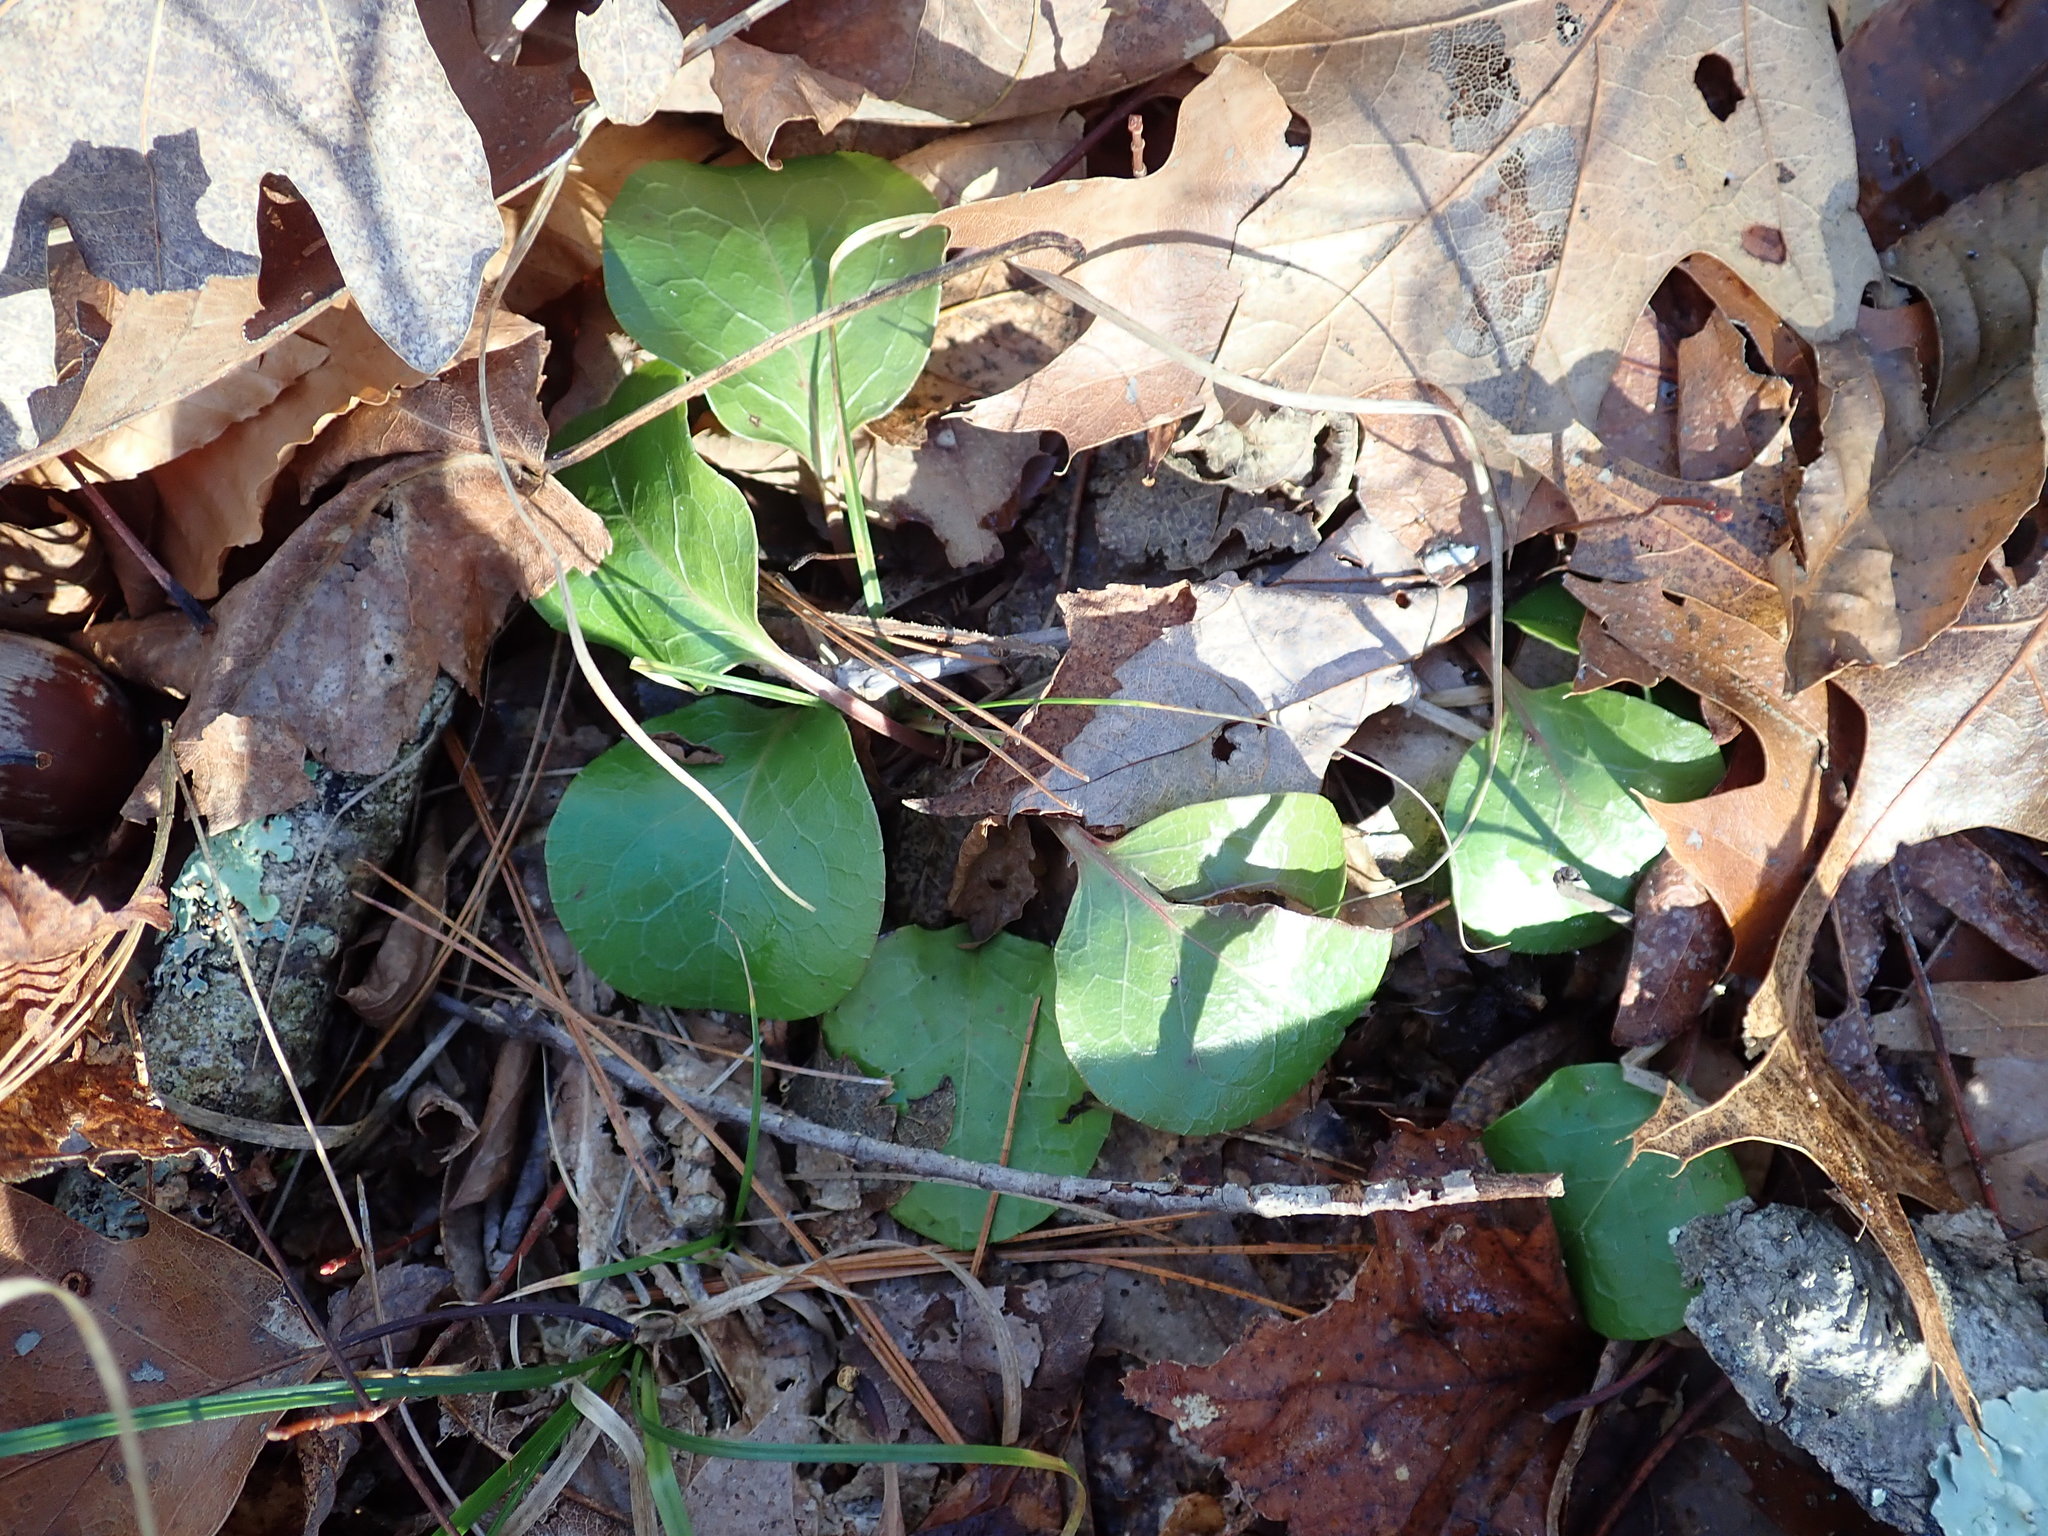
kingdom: Plantae
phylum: Tracheophyta
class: Magnoliopsida
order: Ericales
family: Ericaceae
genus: Pyrola
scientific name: Pyrola americana
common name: American wintergreen
